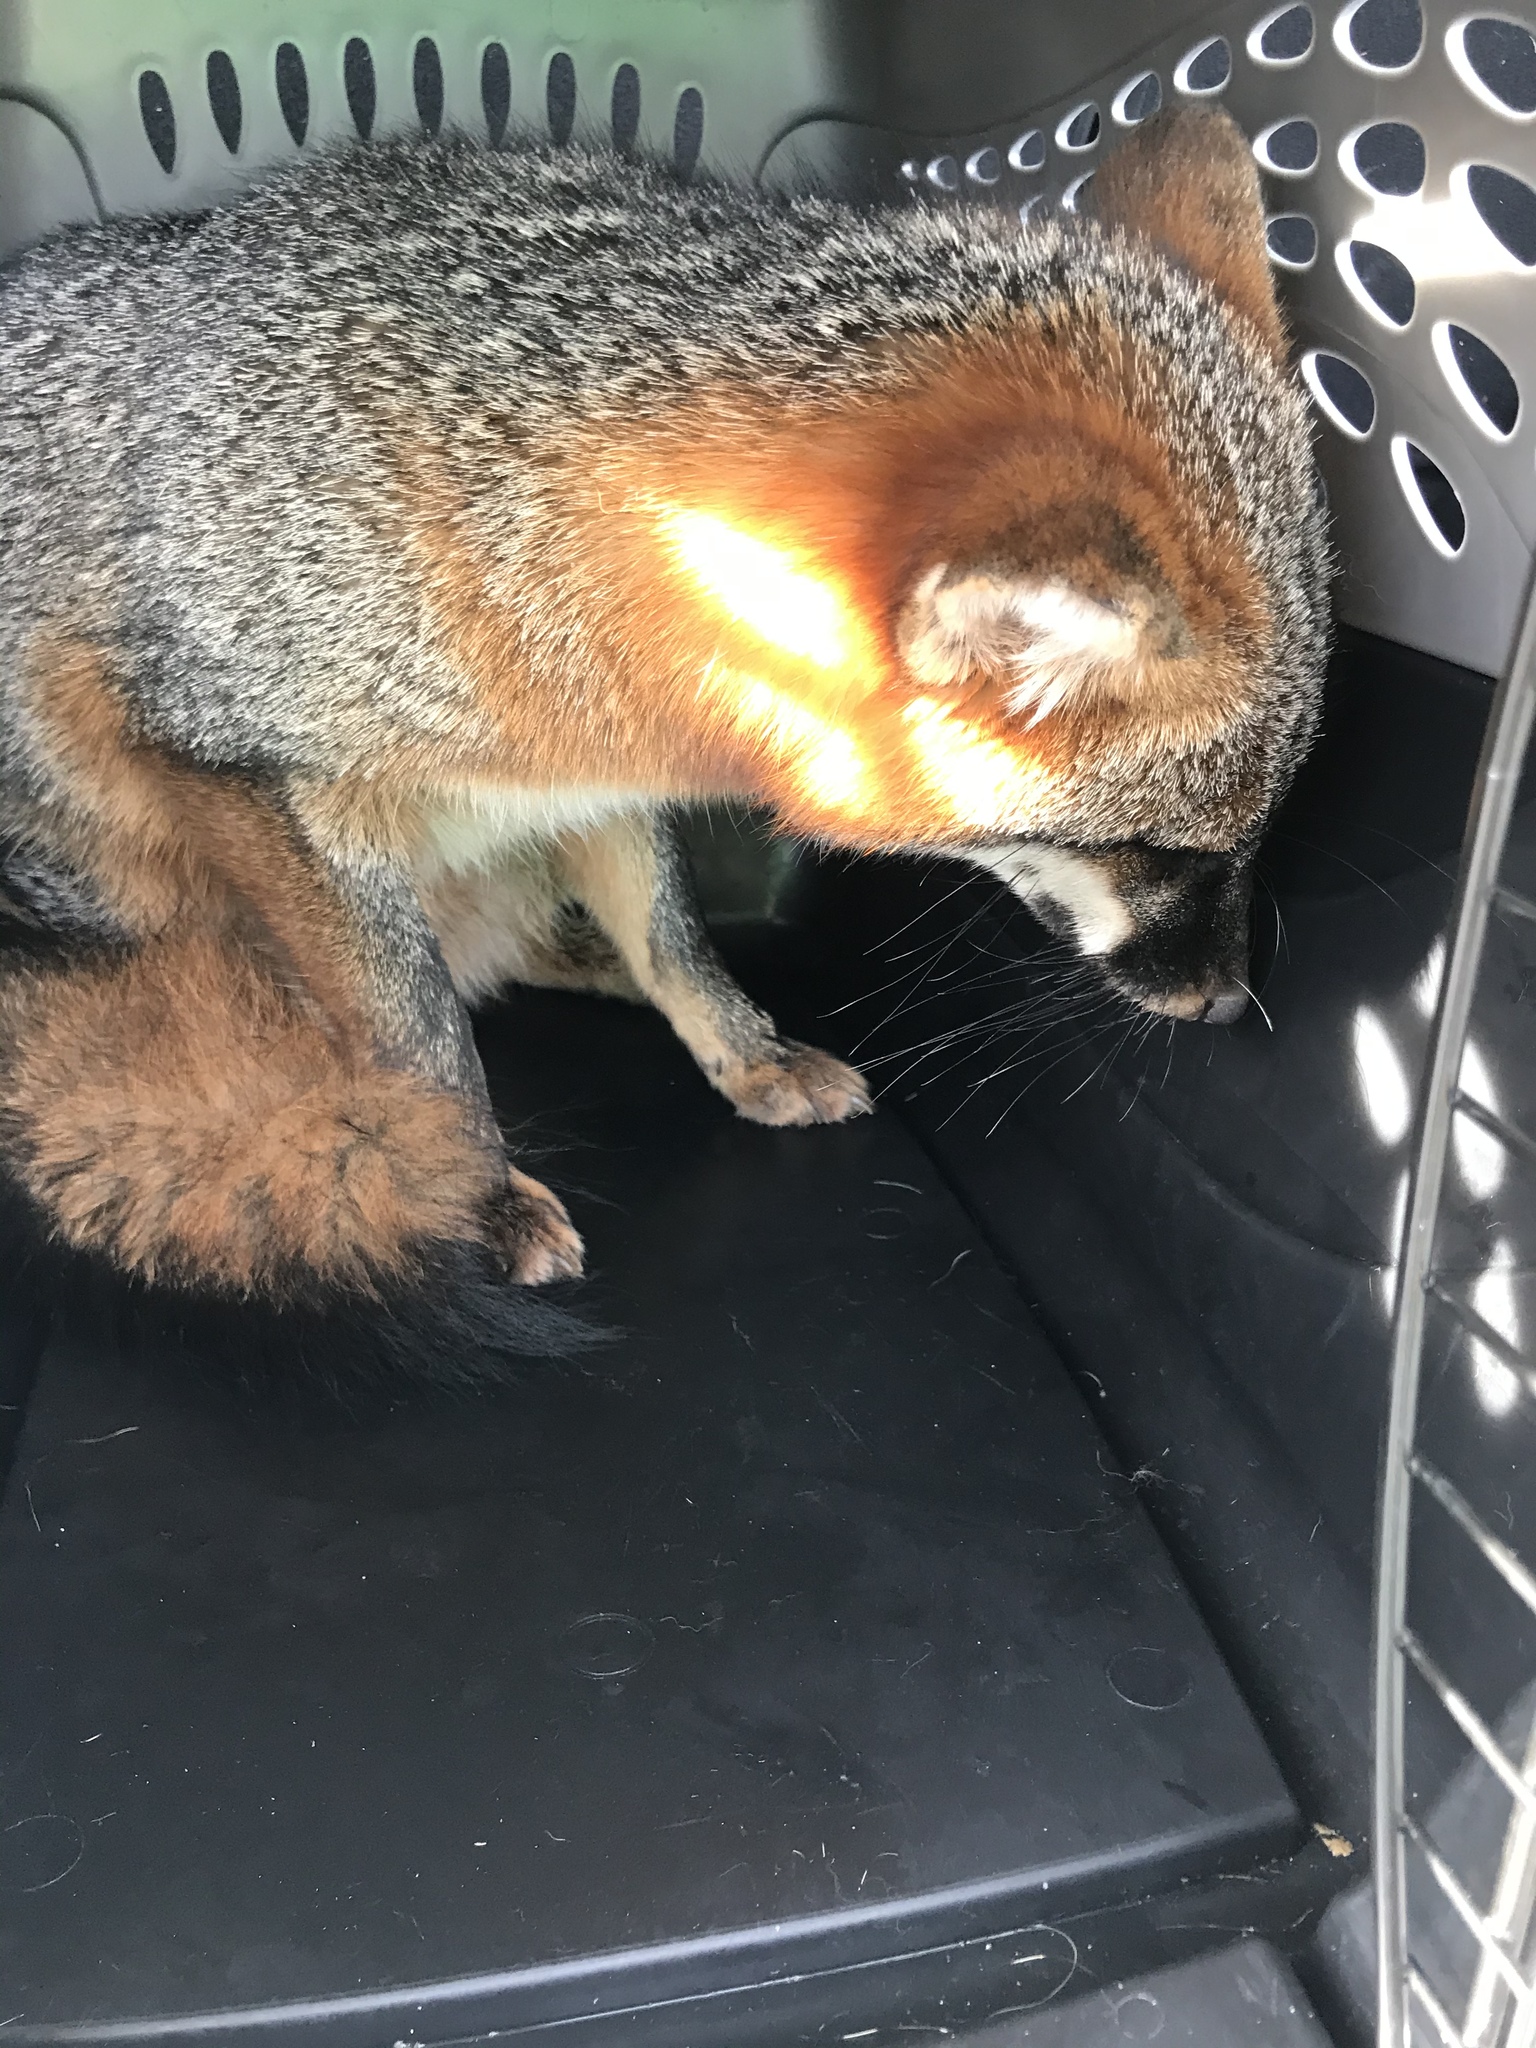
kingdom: Animalia
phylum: Chordata
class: Mammalia
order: Carnivora
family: Canidae
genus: Urocyon
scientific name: Urocyon cinereoargenteus
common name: Gray fox
